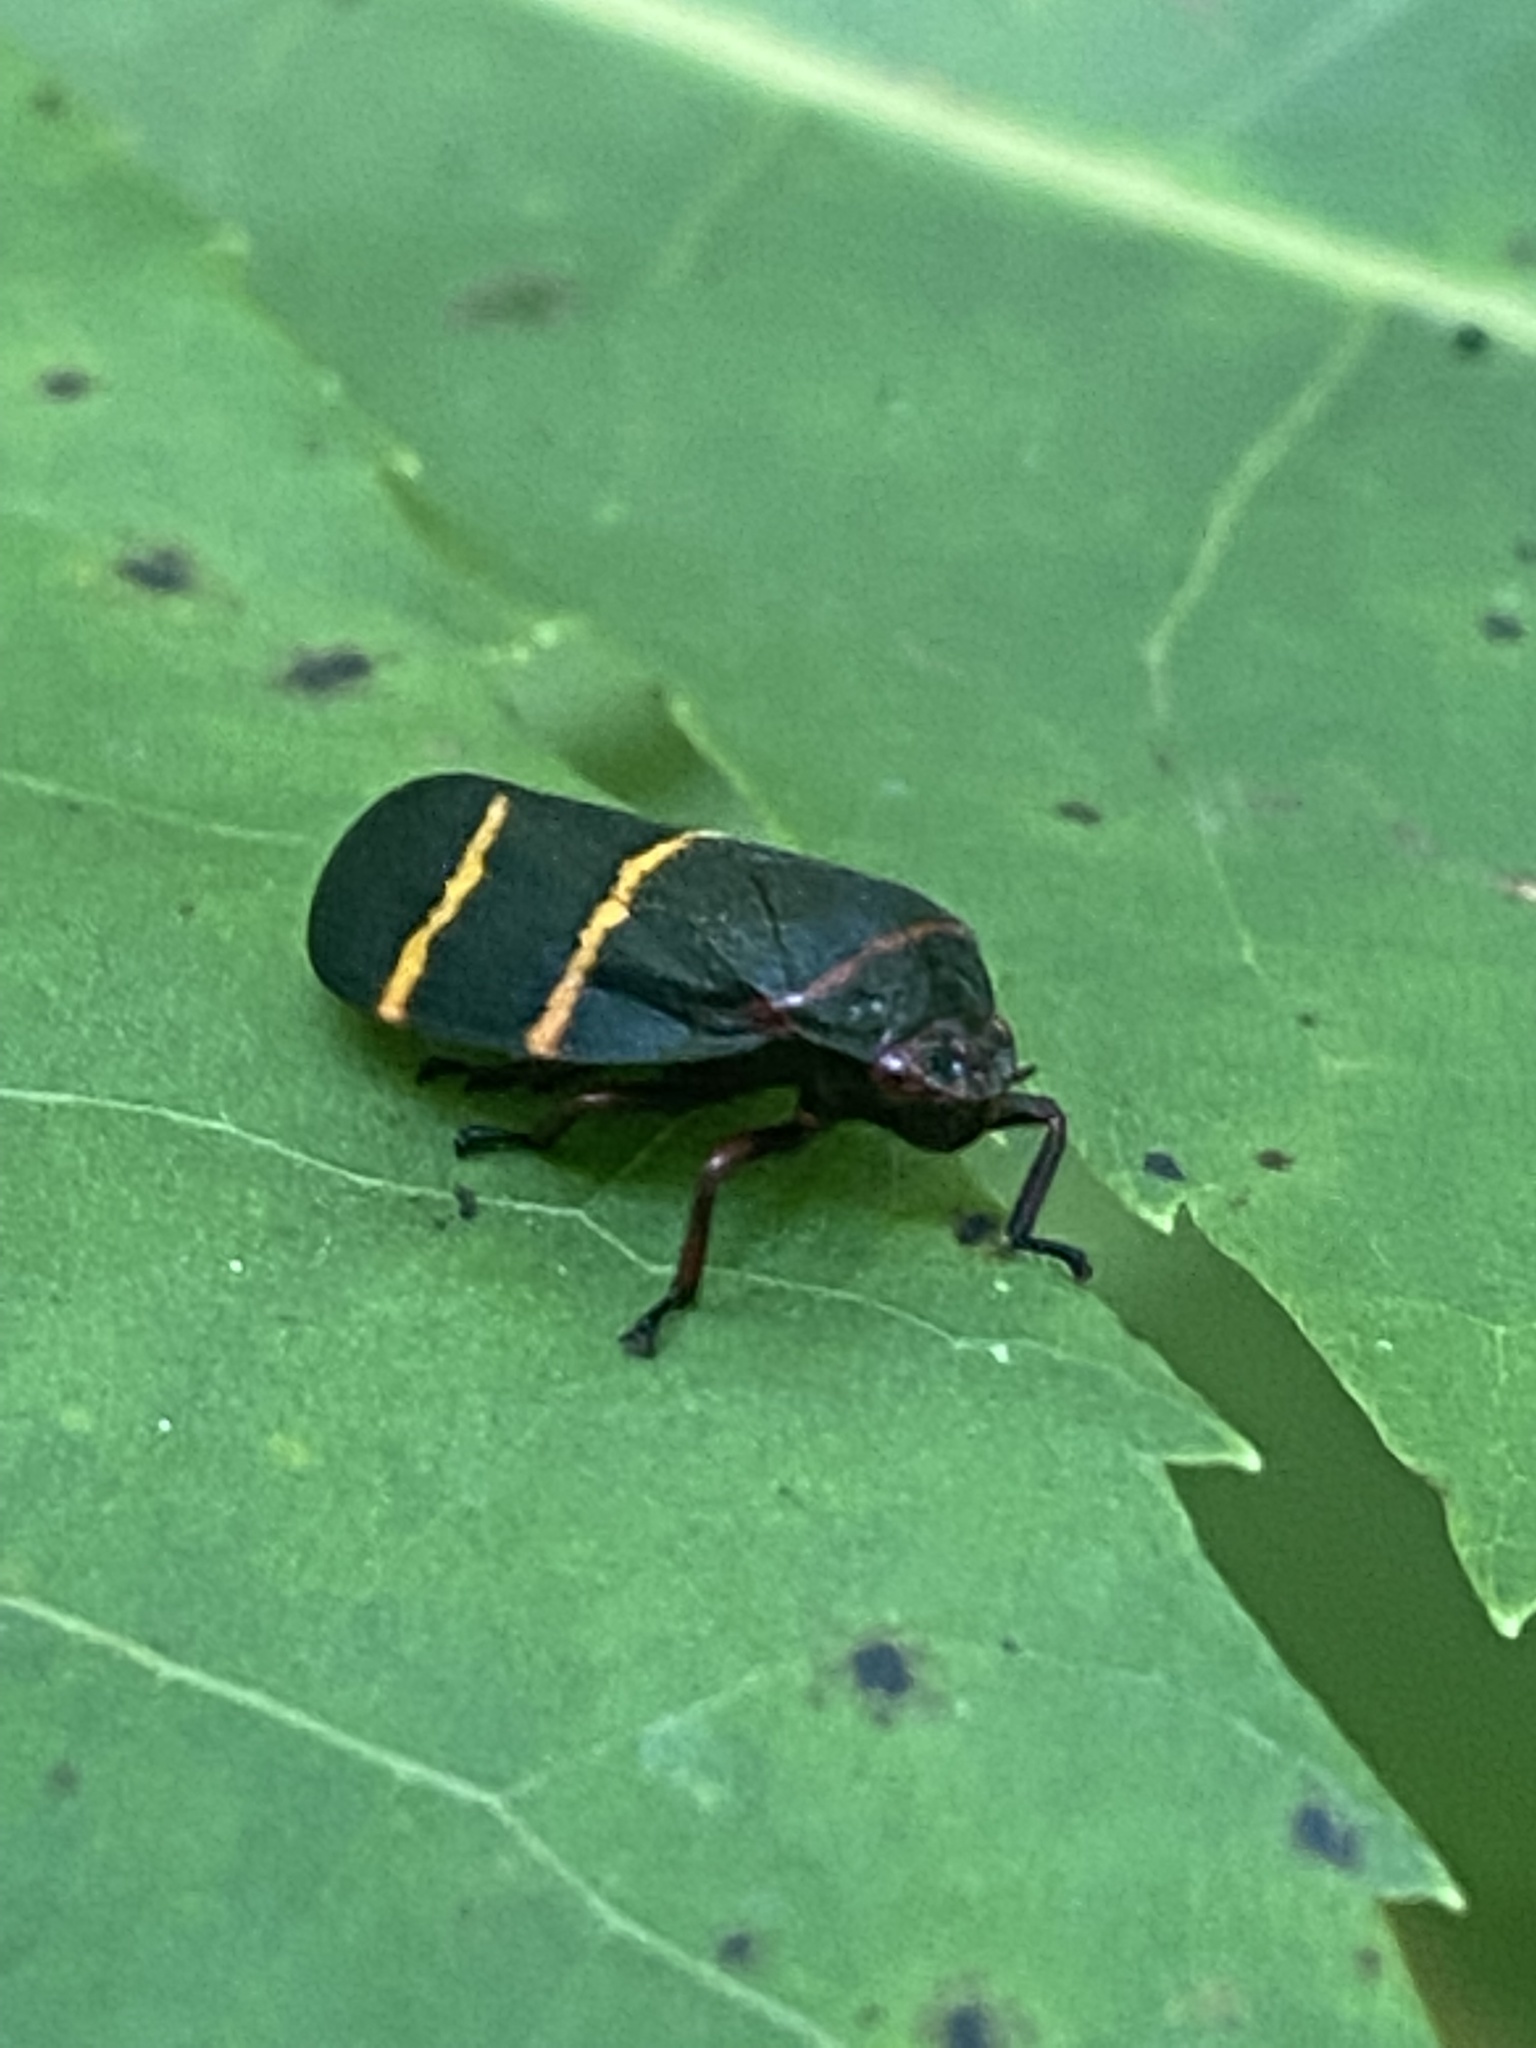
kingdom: Animalia
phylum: Arthropoda
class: Insecta
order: Hemiptera
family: Cercopidae
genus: Prosapia
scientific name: Prosapia bicincta
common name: Twolined spittlebug
